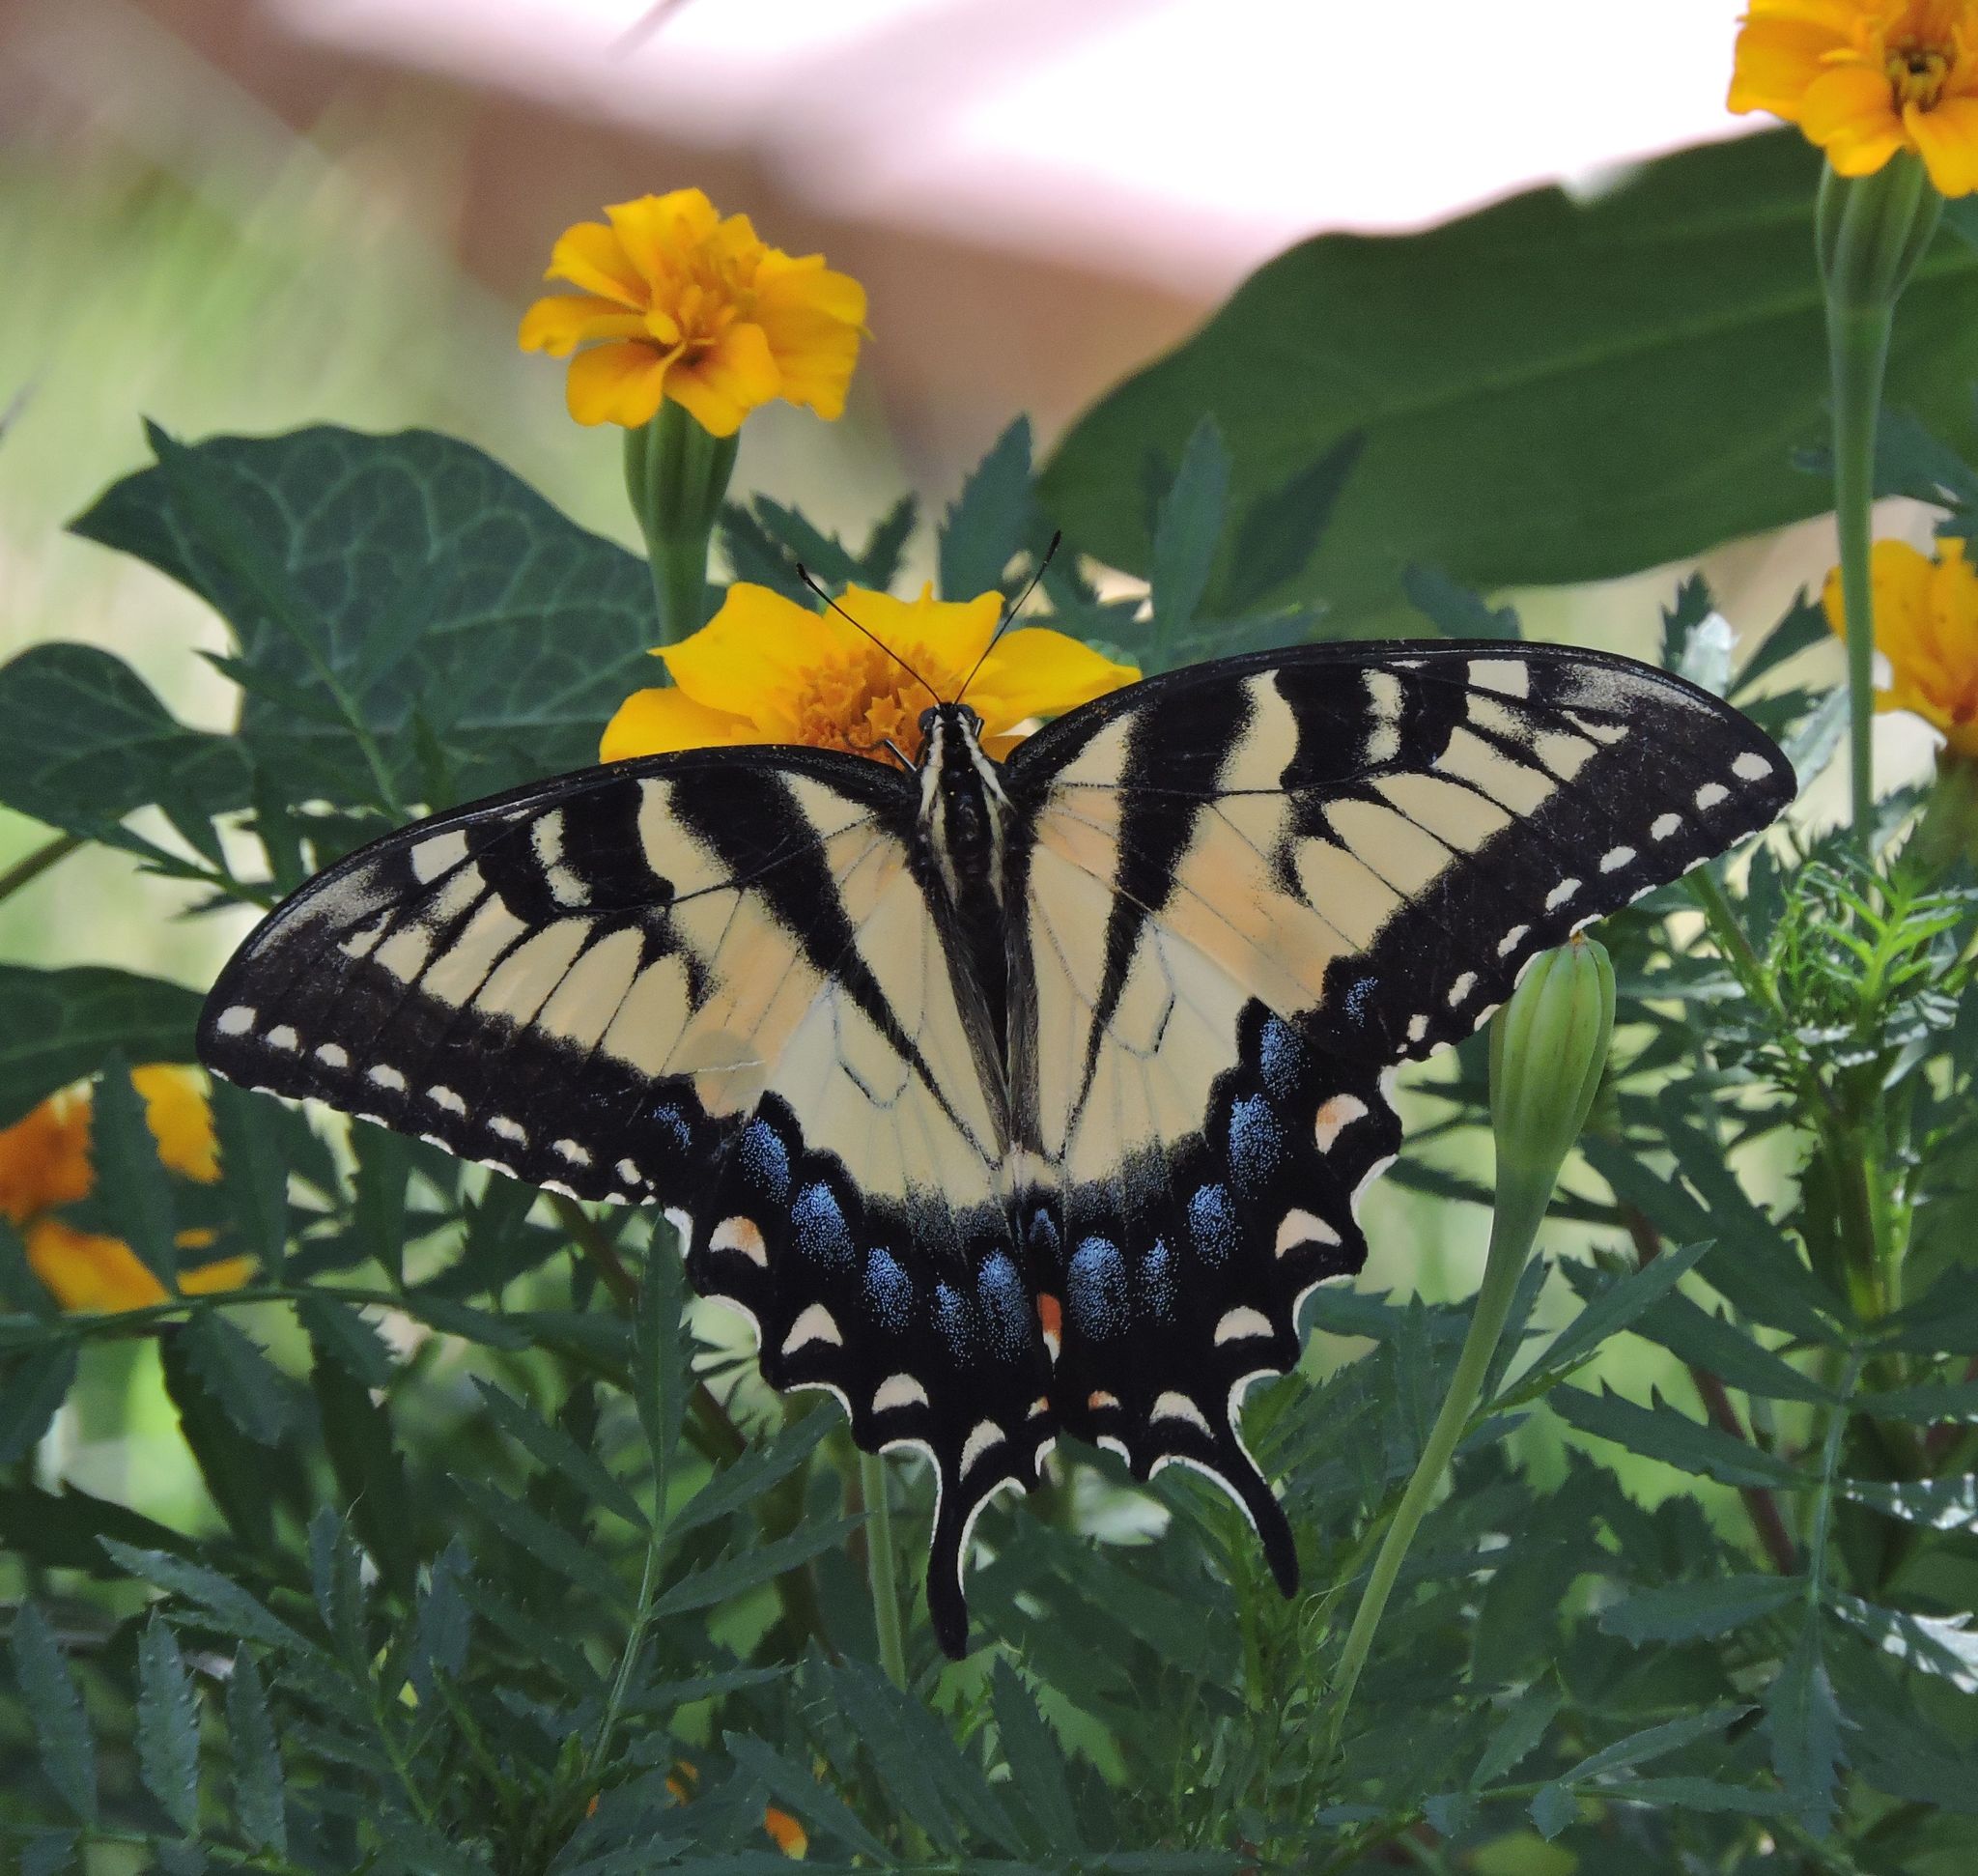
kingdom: Animalia
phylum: Arthropoda
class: Insecta
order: Lepidoptera
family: Papilionidae
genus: Papilio
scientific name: Papilio glaucus
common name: Tiger swallowtail
